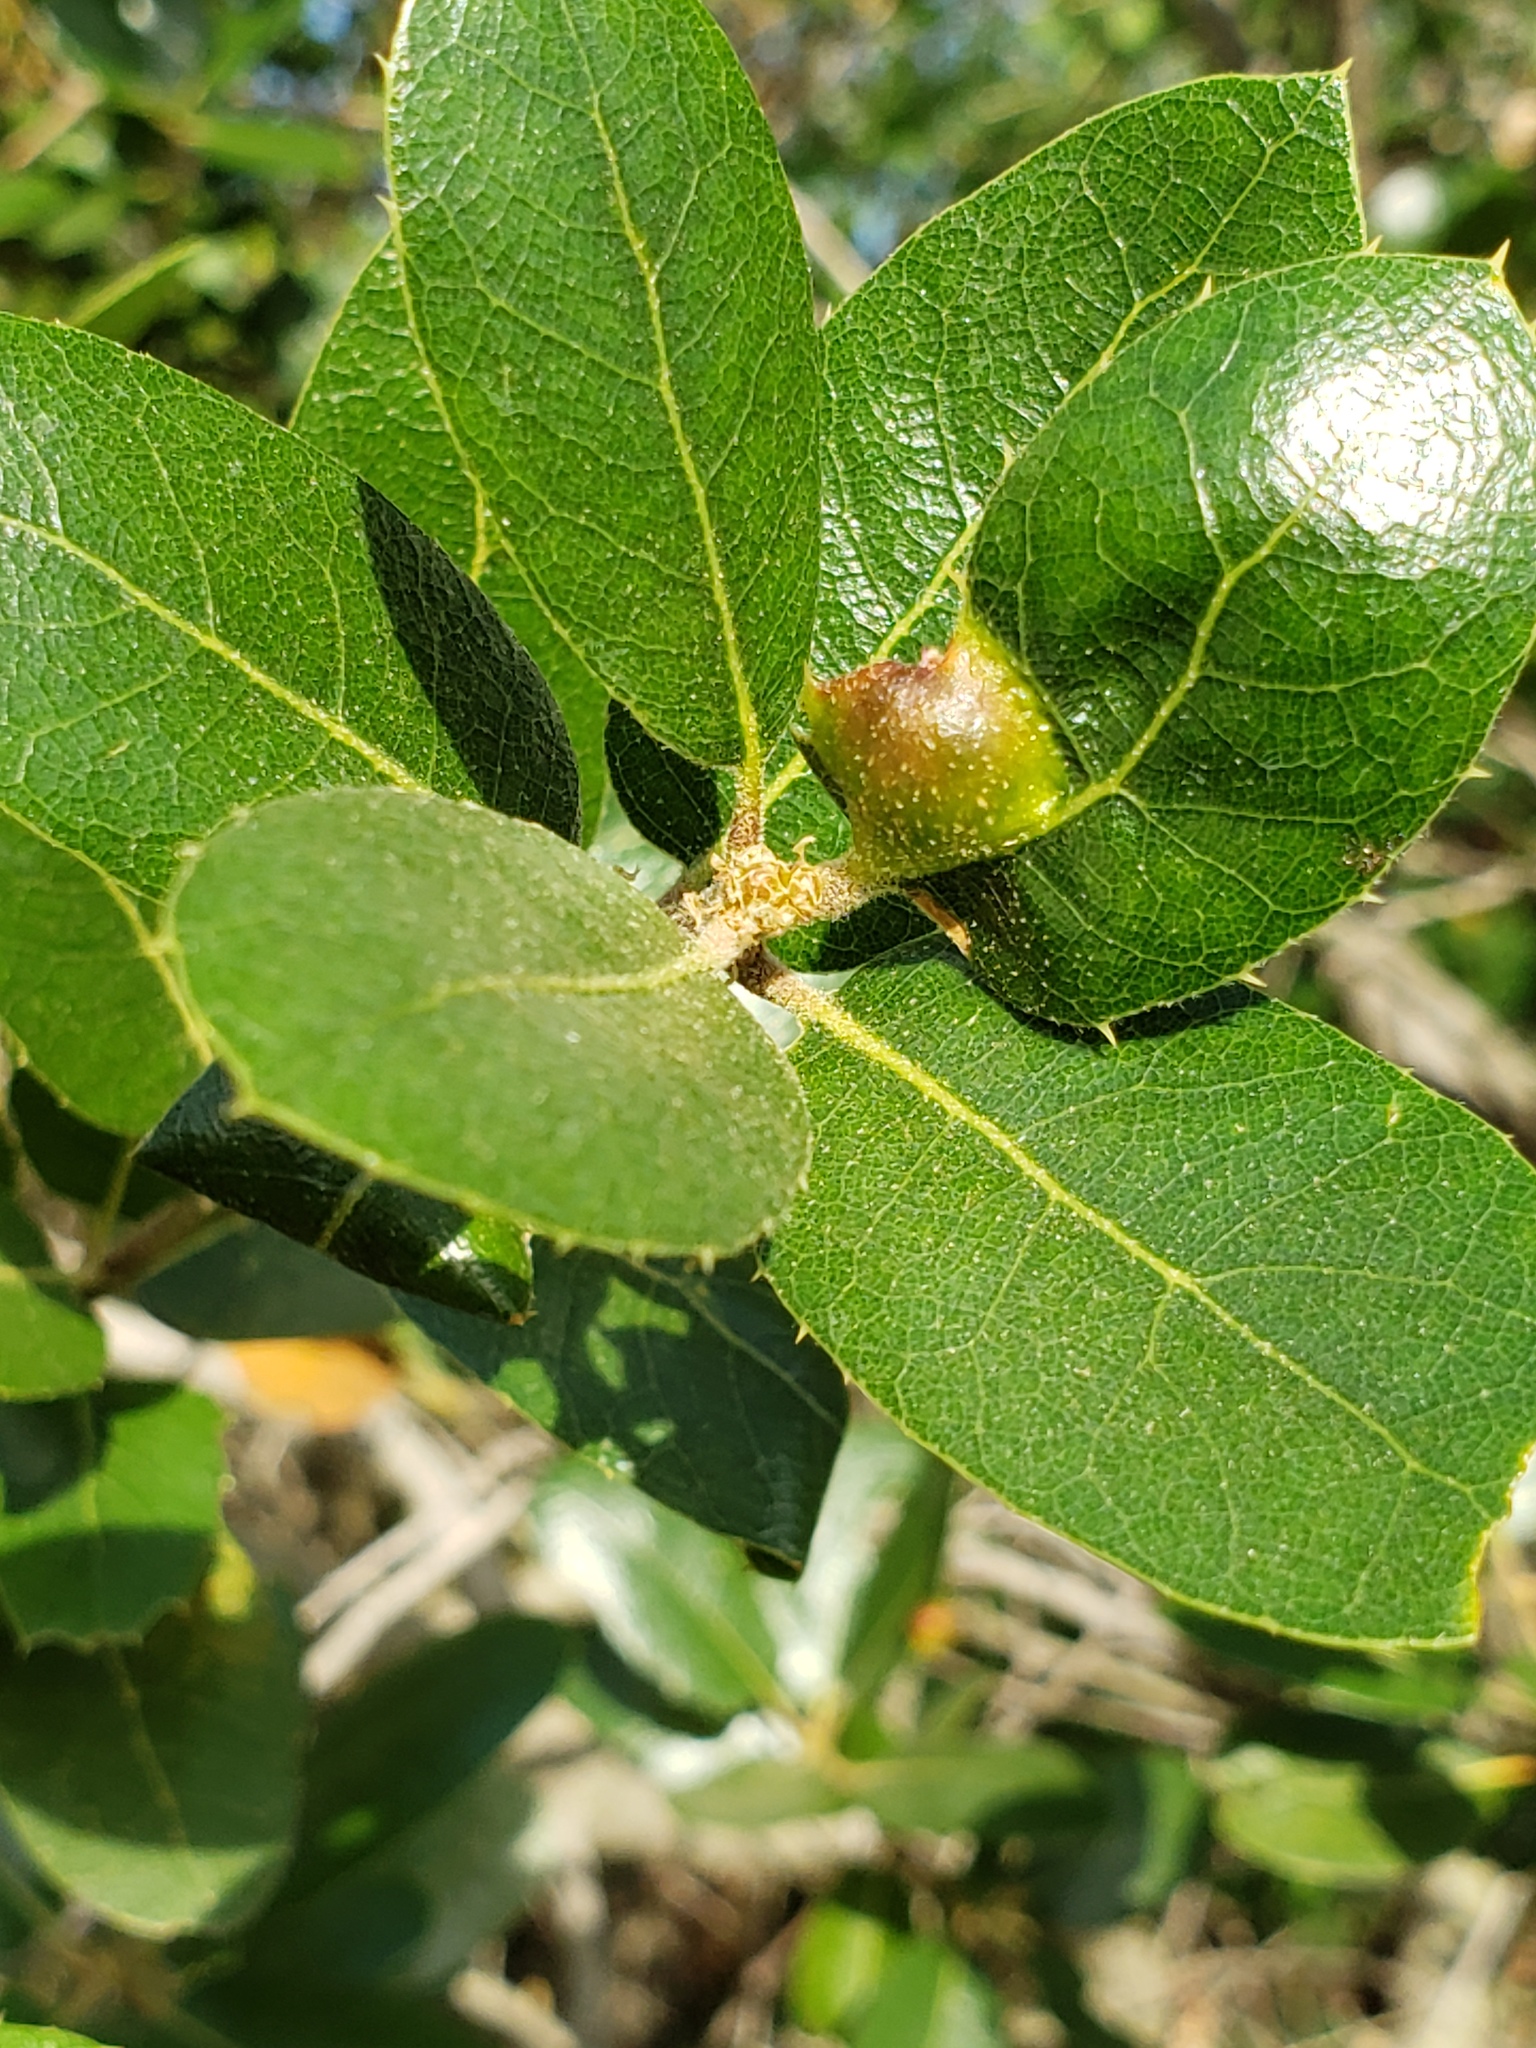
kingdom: Animalia
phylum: Arthropoda
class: Insecta
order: Hymenoptera
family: Cynipidae
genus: Heteroecus
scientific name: Heteroecus
